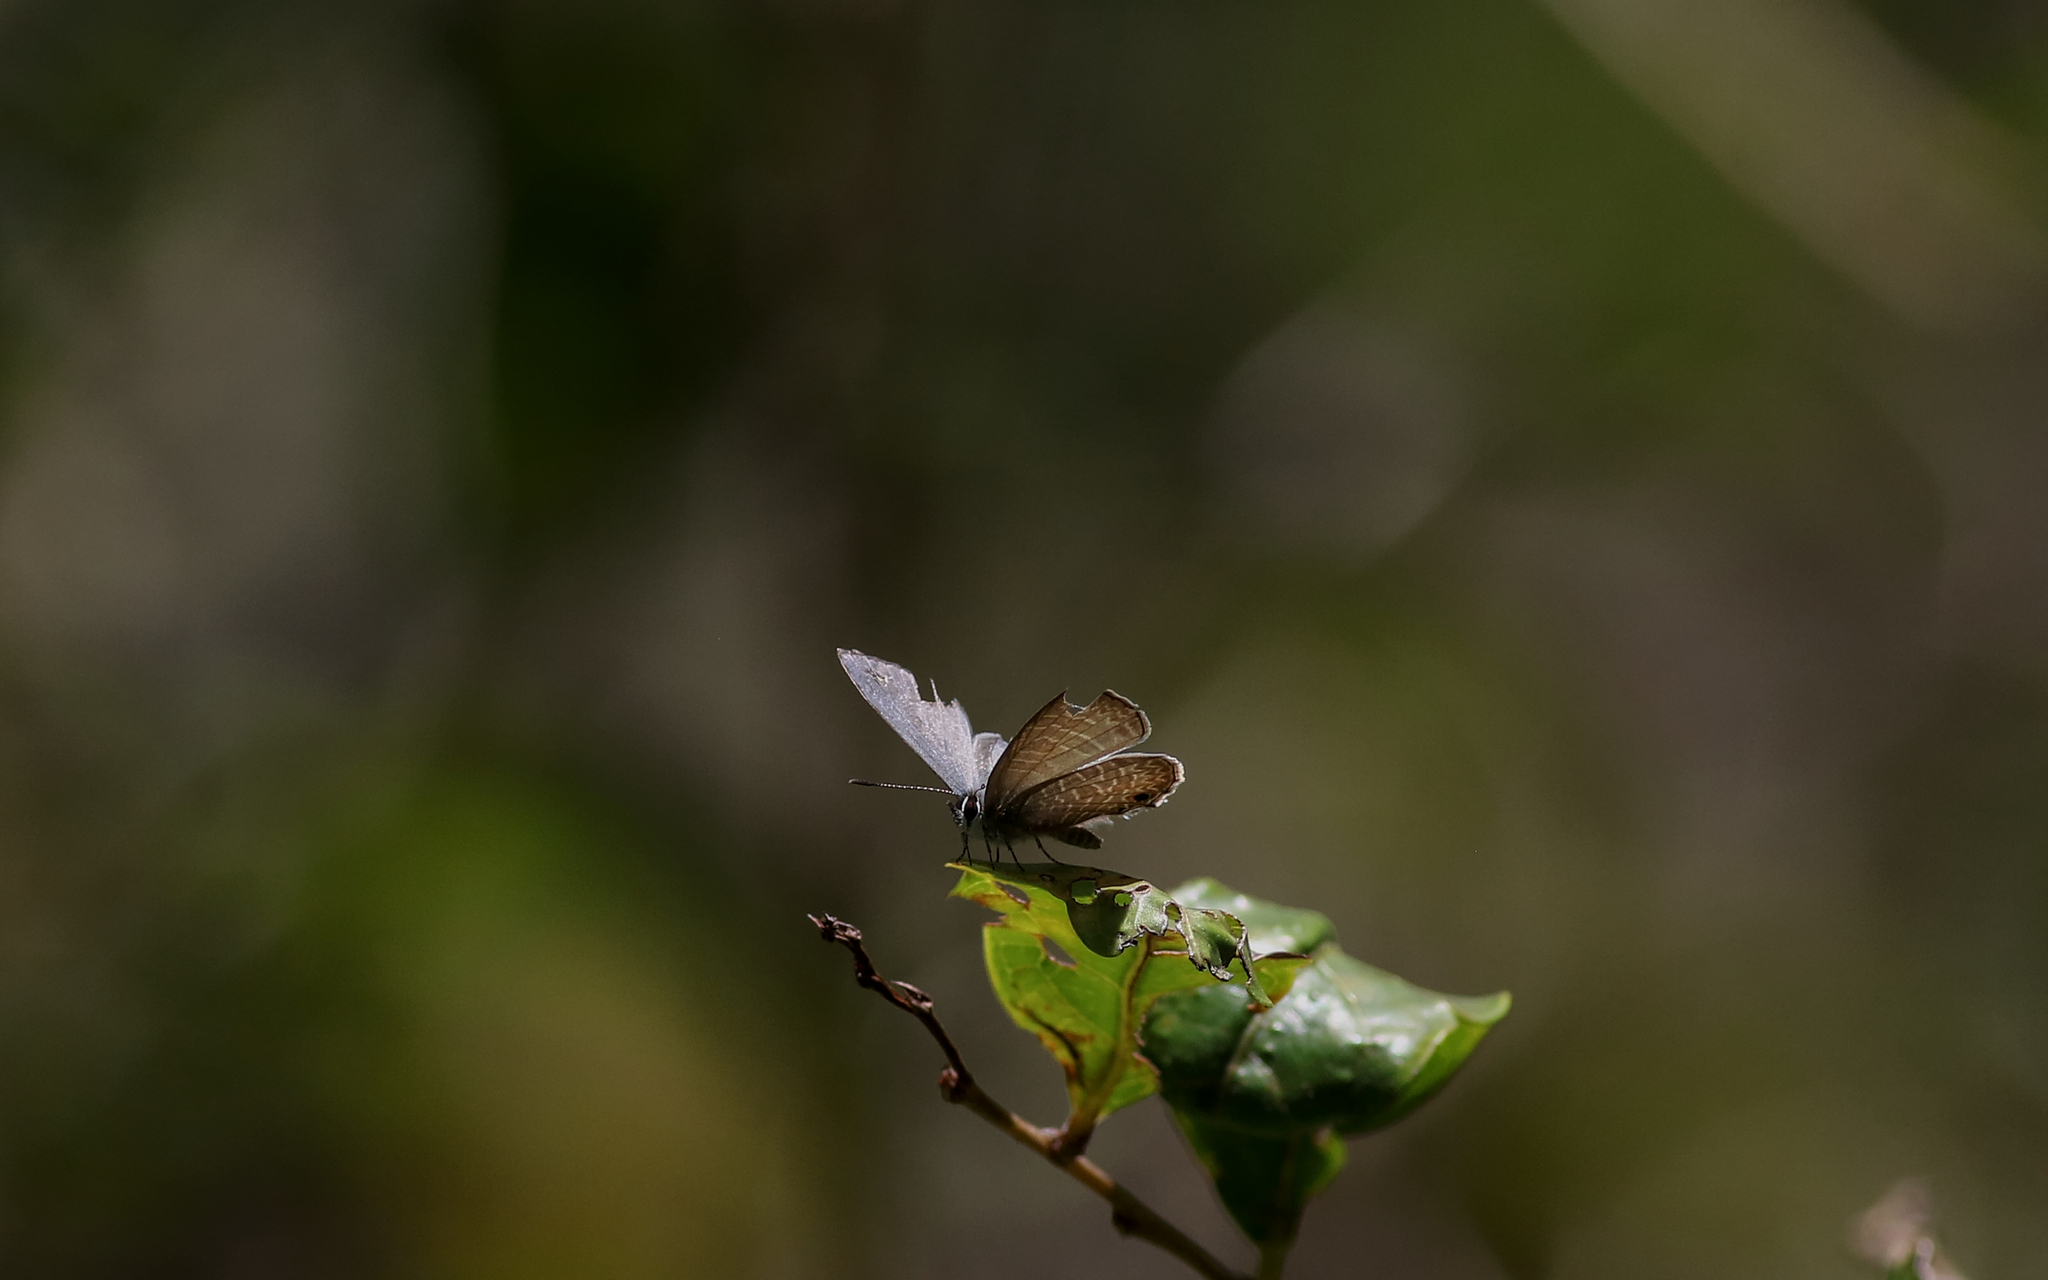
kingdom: Animalia
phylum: Arthropoda
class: Insecta
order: Lepidoptera
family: Lycaenidae
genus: Nacaduba
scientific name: Nacaduba berenice
